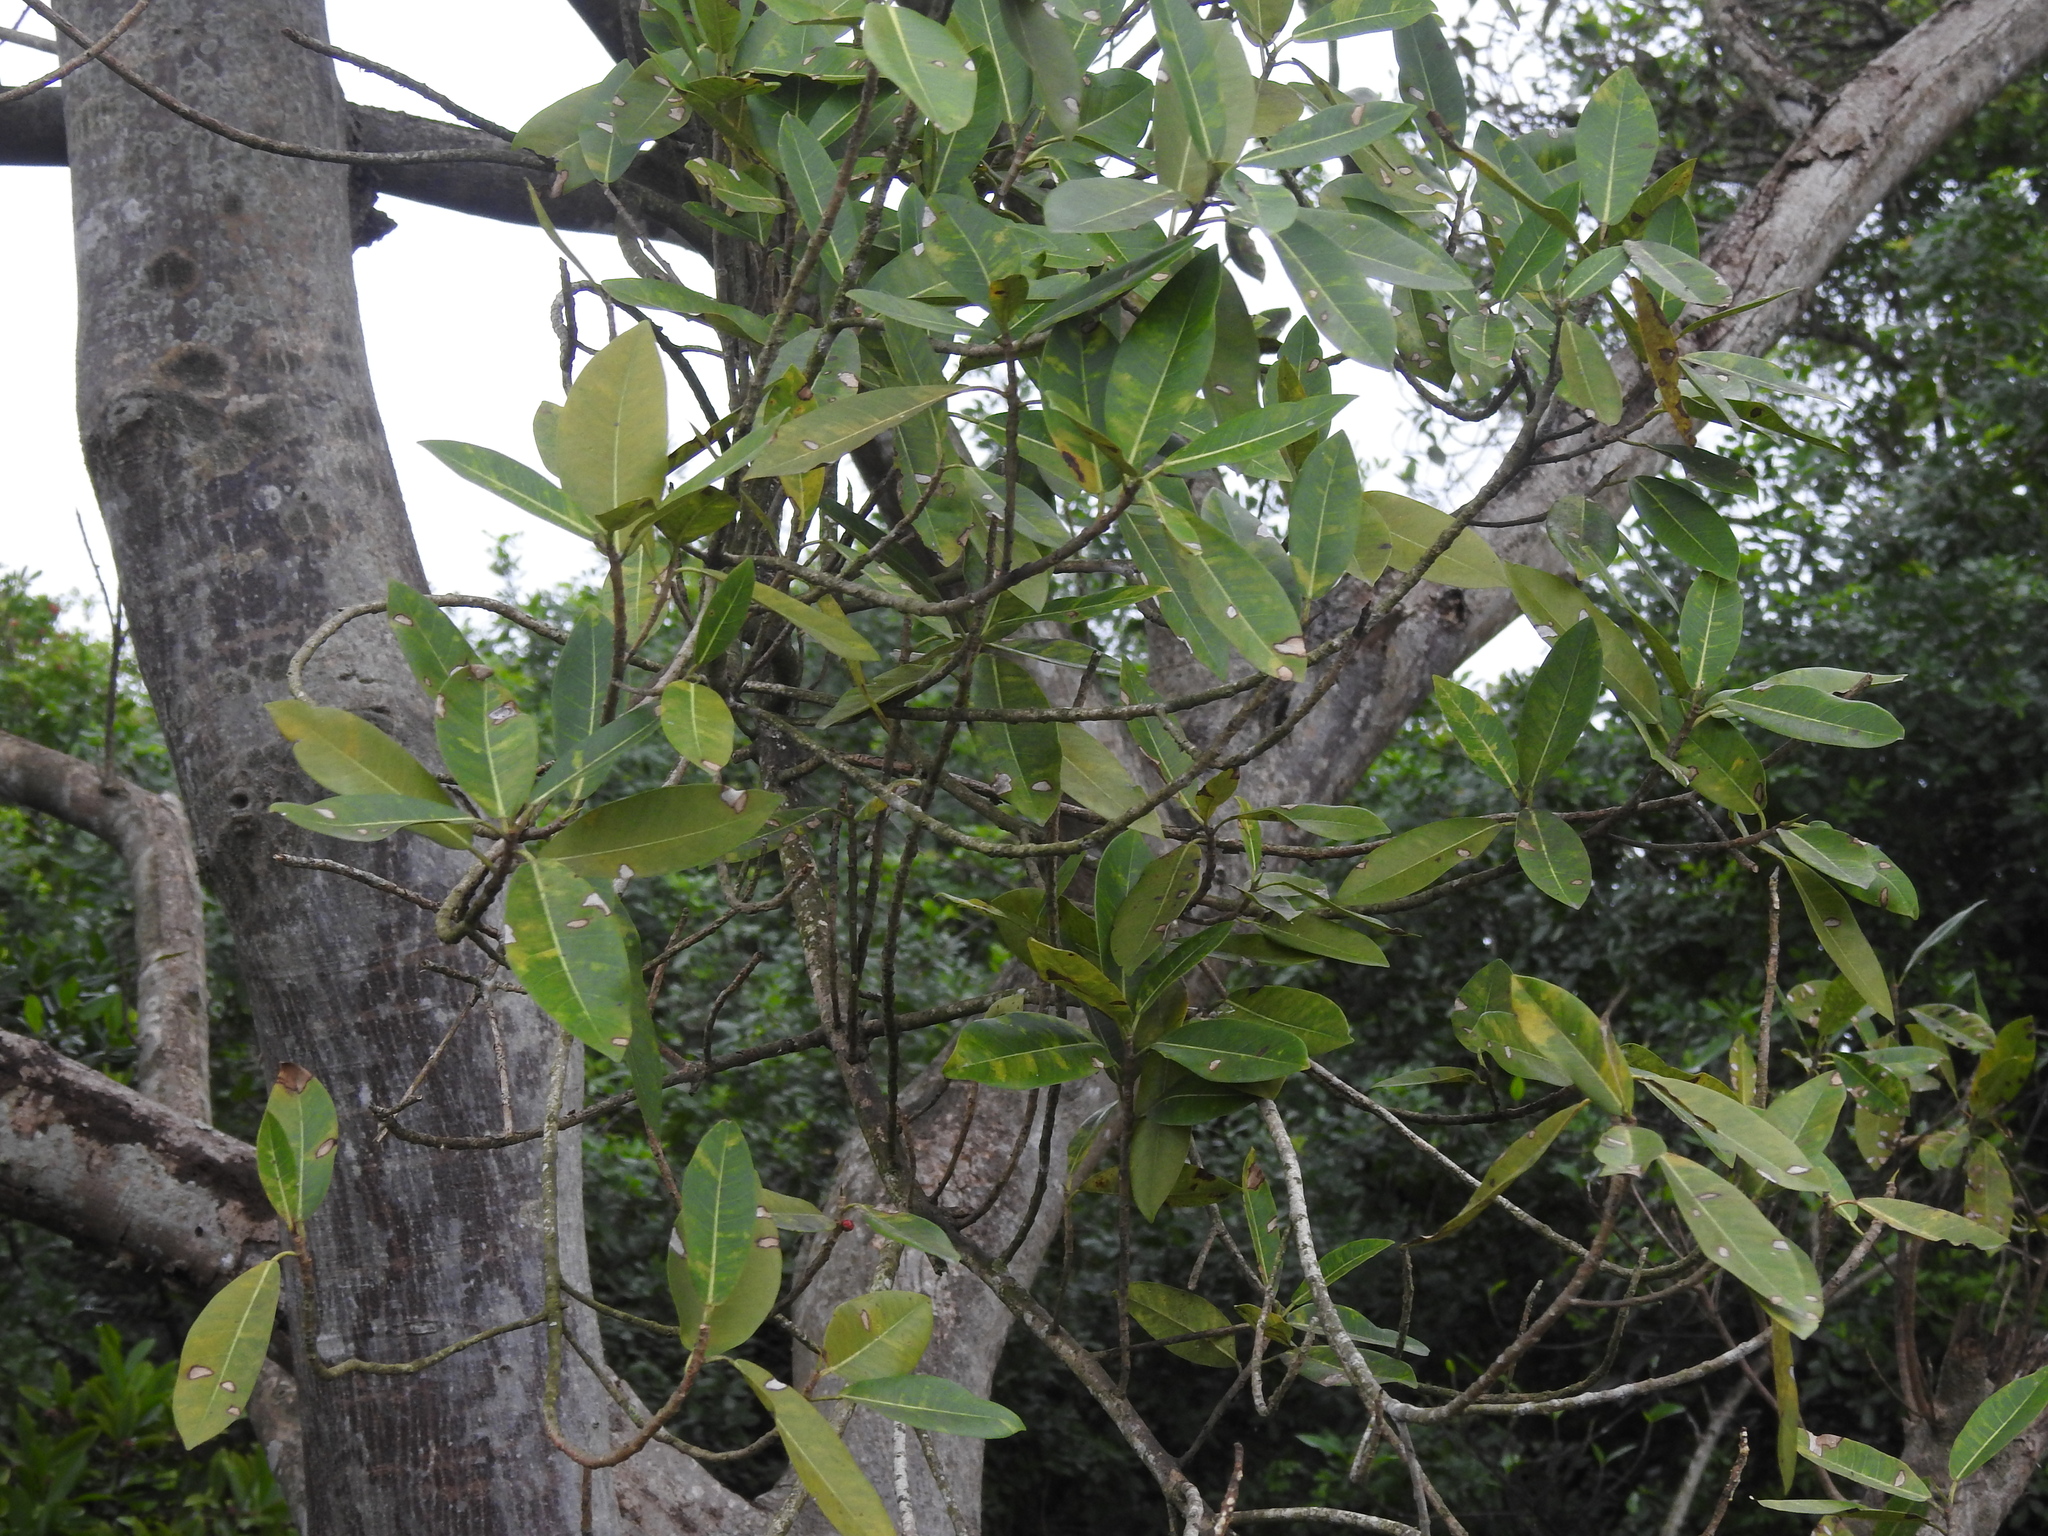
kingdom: Plantae
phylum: Tracheophyta
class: Magnoliopsida
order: Rosales
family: Moraceae
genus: Ficus
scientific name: Ficus aurea
